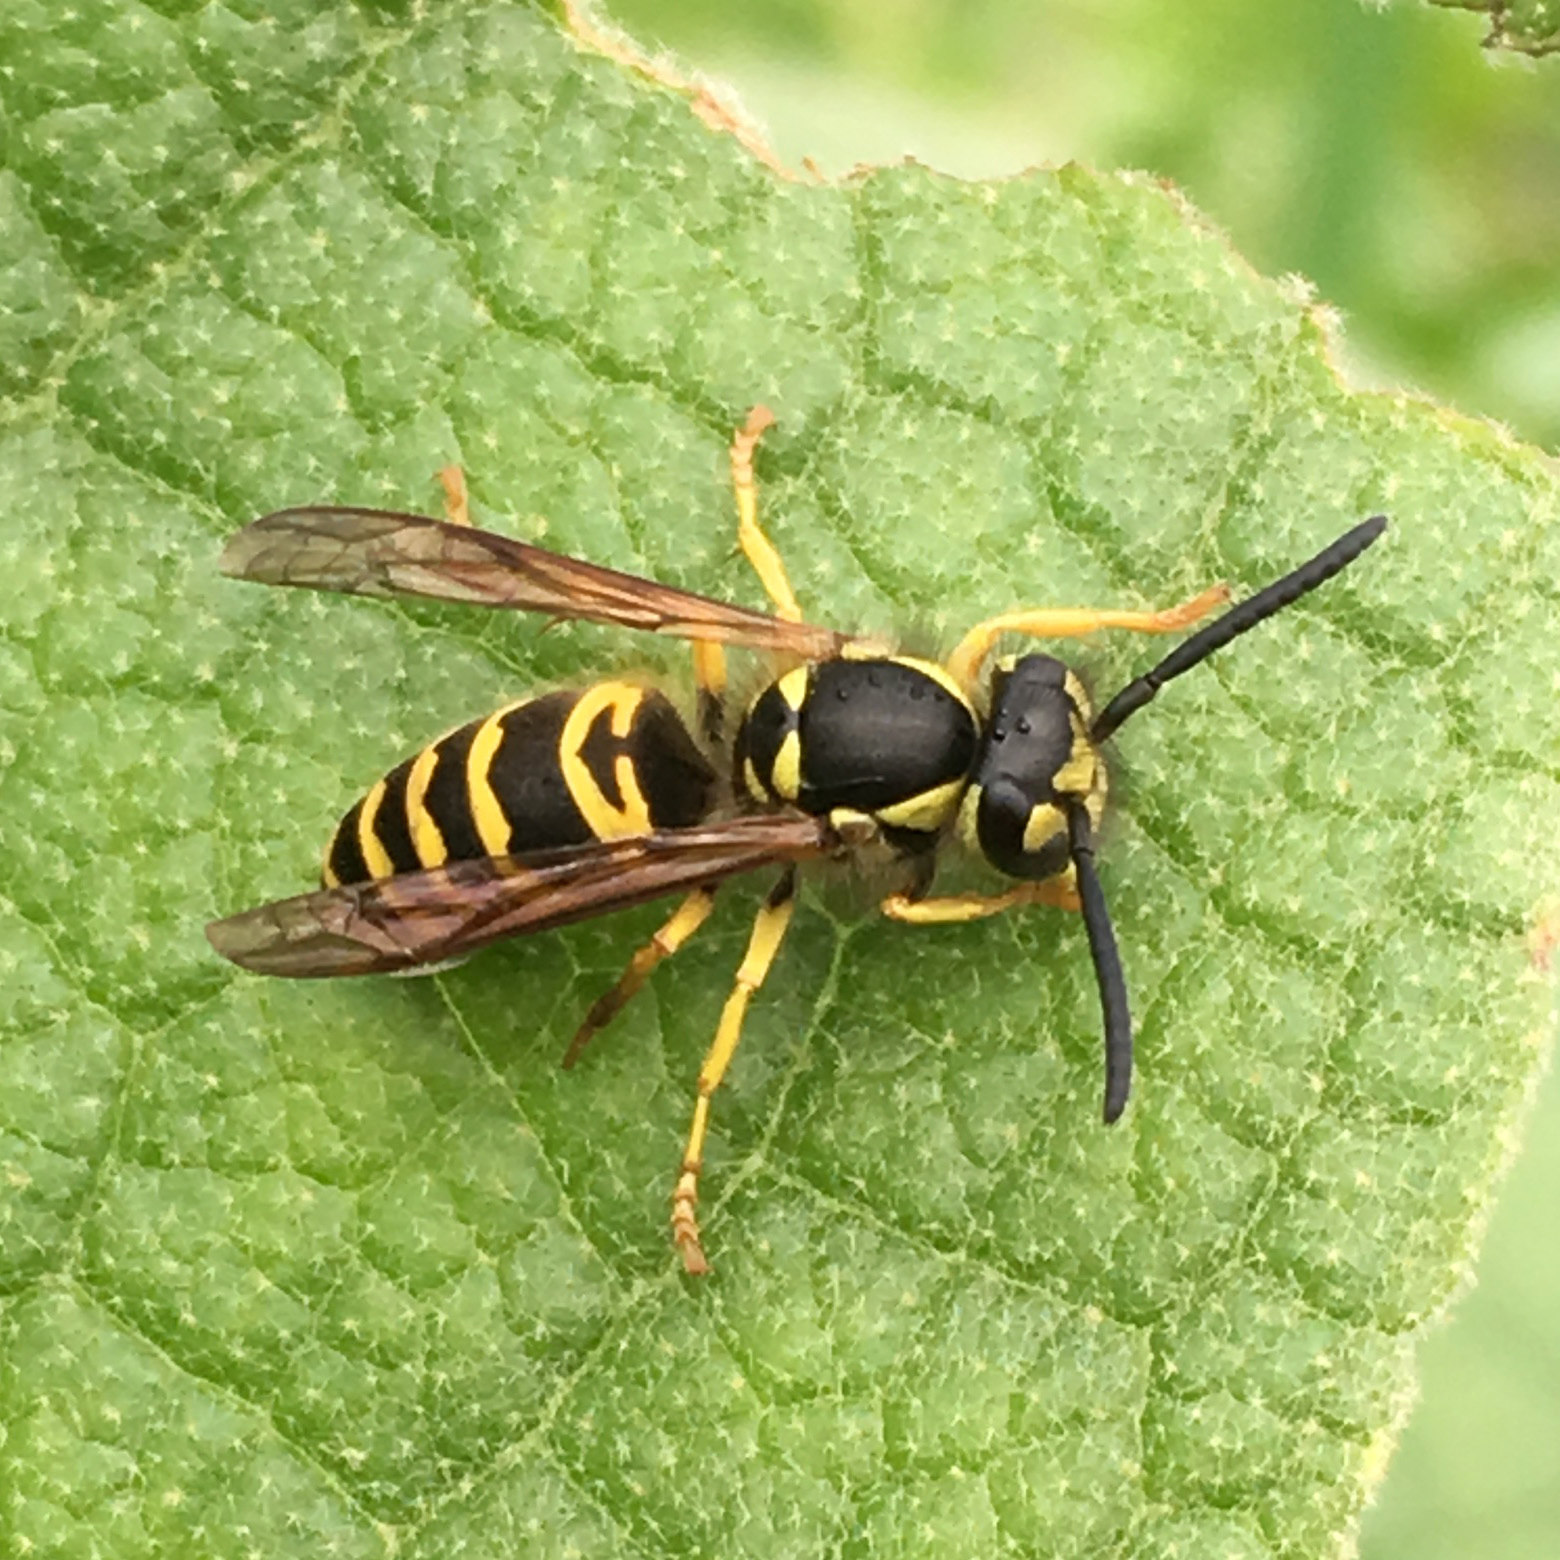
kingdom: Animalia
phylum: Arthropoda
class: Insecta
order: Hymenoptera
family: Vespidae
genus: Vespula
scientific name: Vespula maculifrons
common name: Eastern yellowjacket
